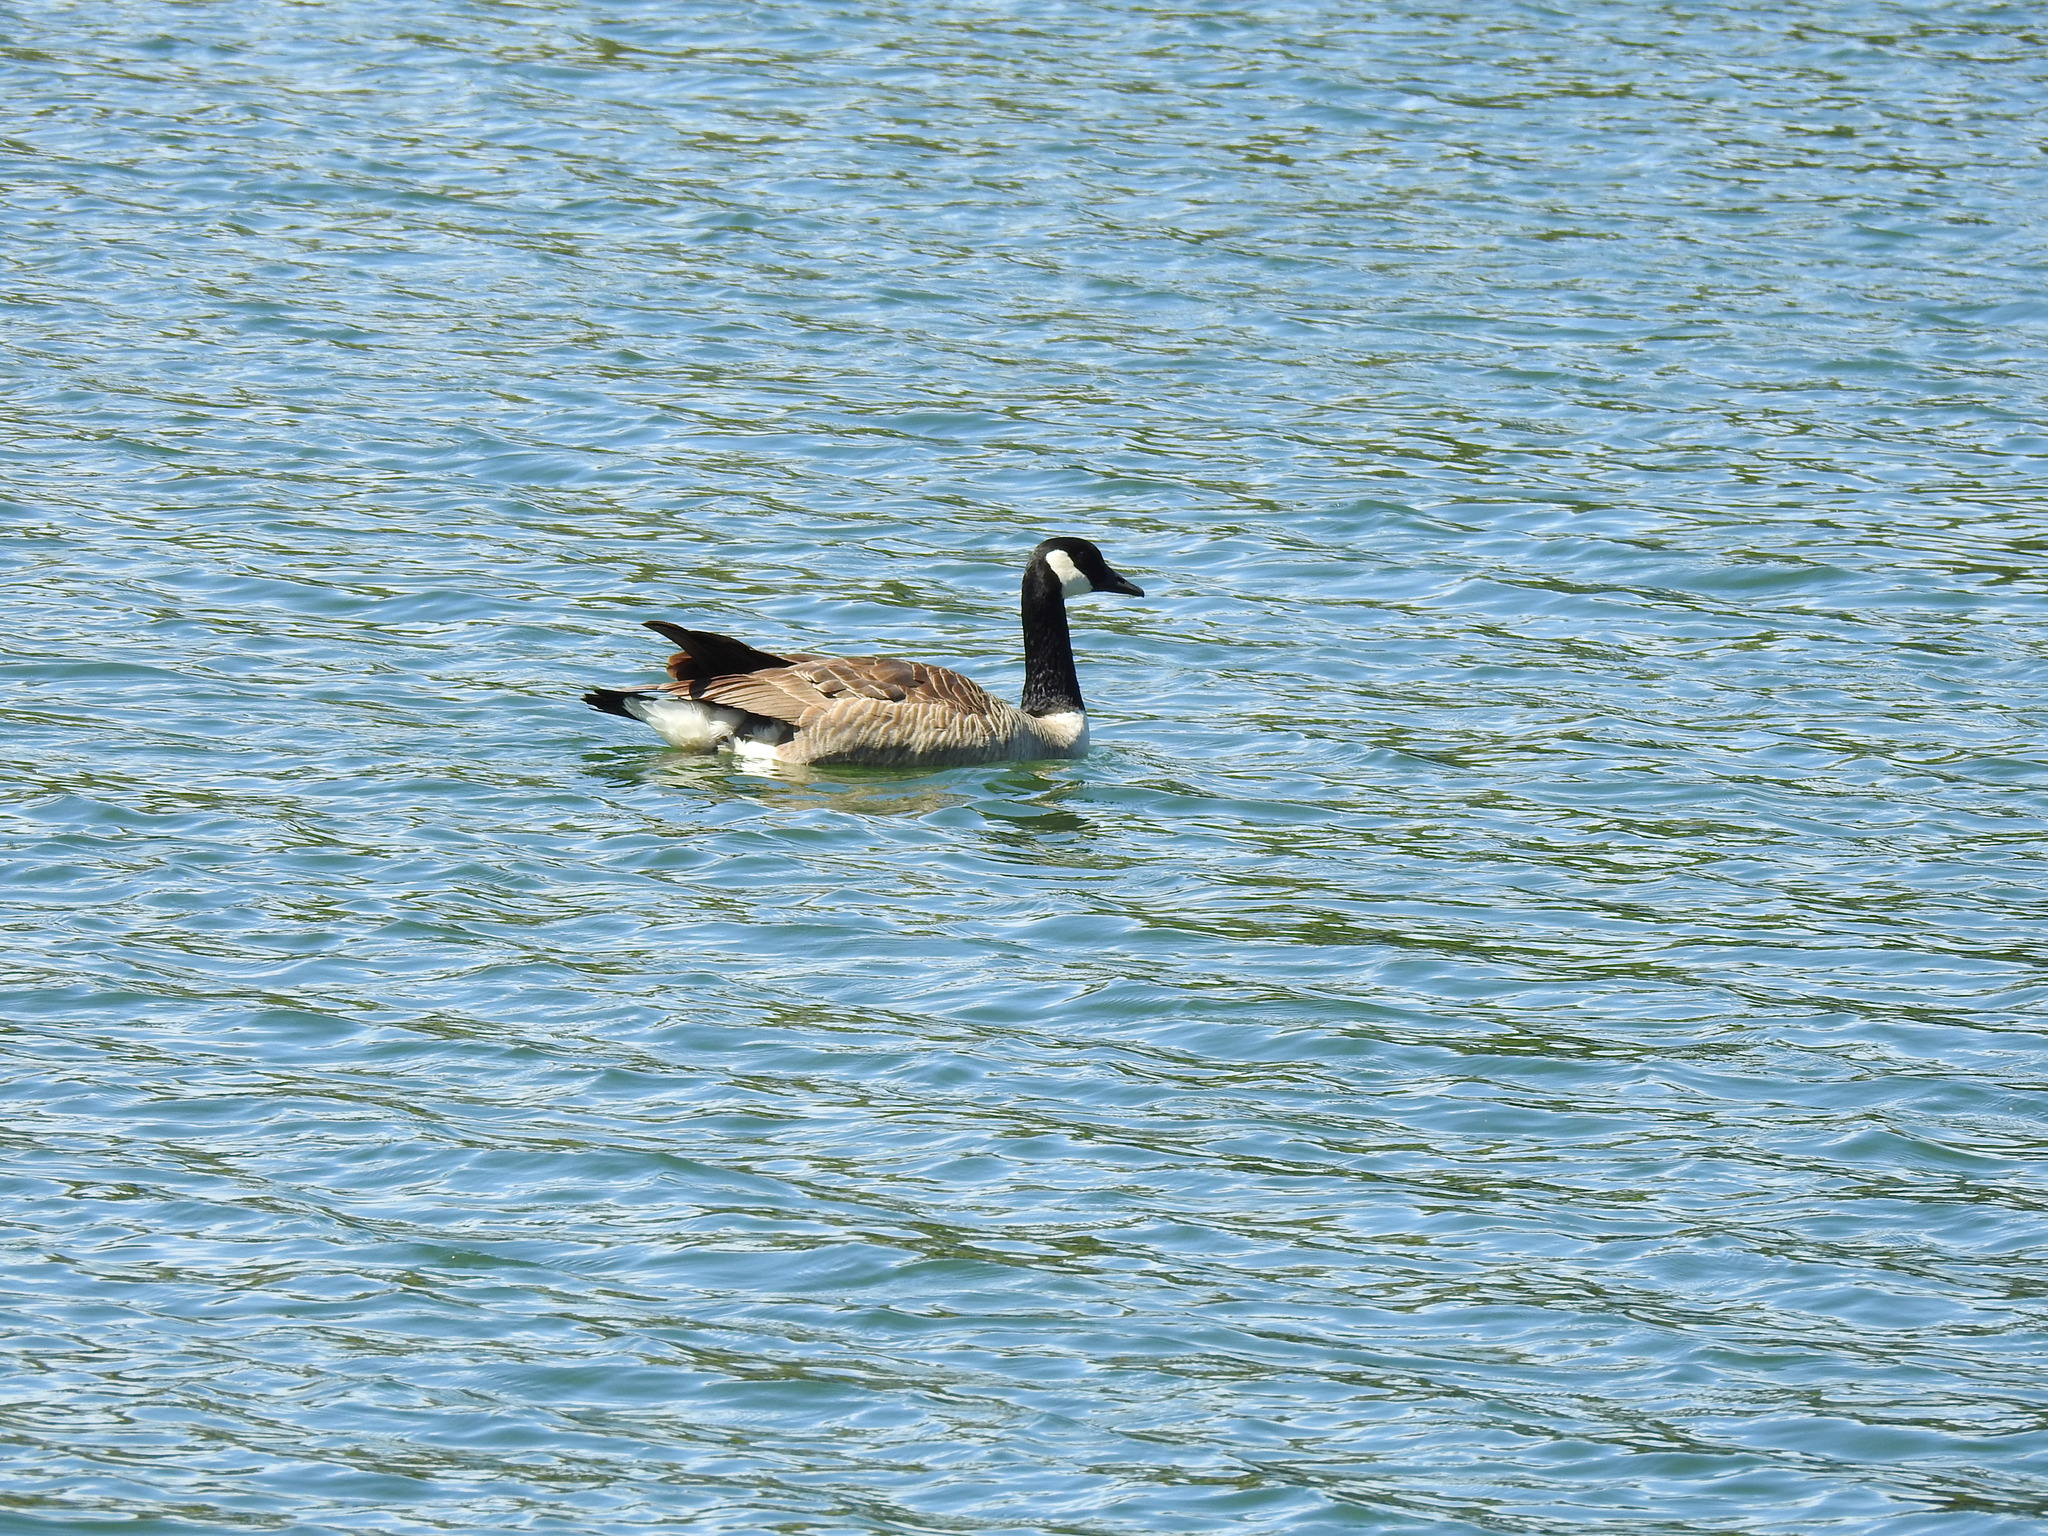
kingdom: Animalia
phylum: Chordata
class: Aves
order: Anseriformes
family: Anatidae
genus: Branta
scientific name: Branta canadensis
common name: Canada goose
